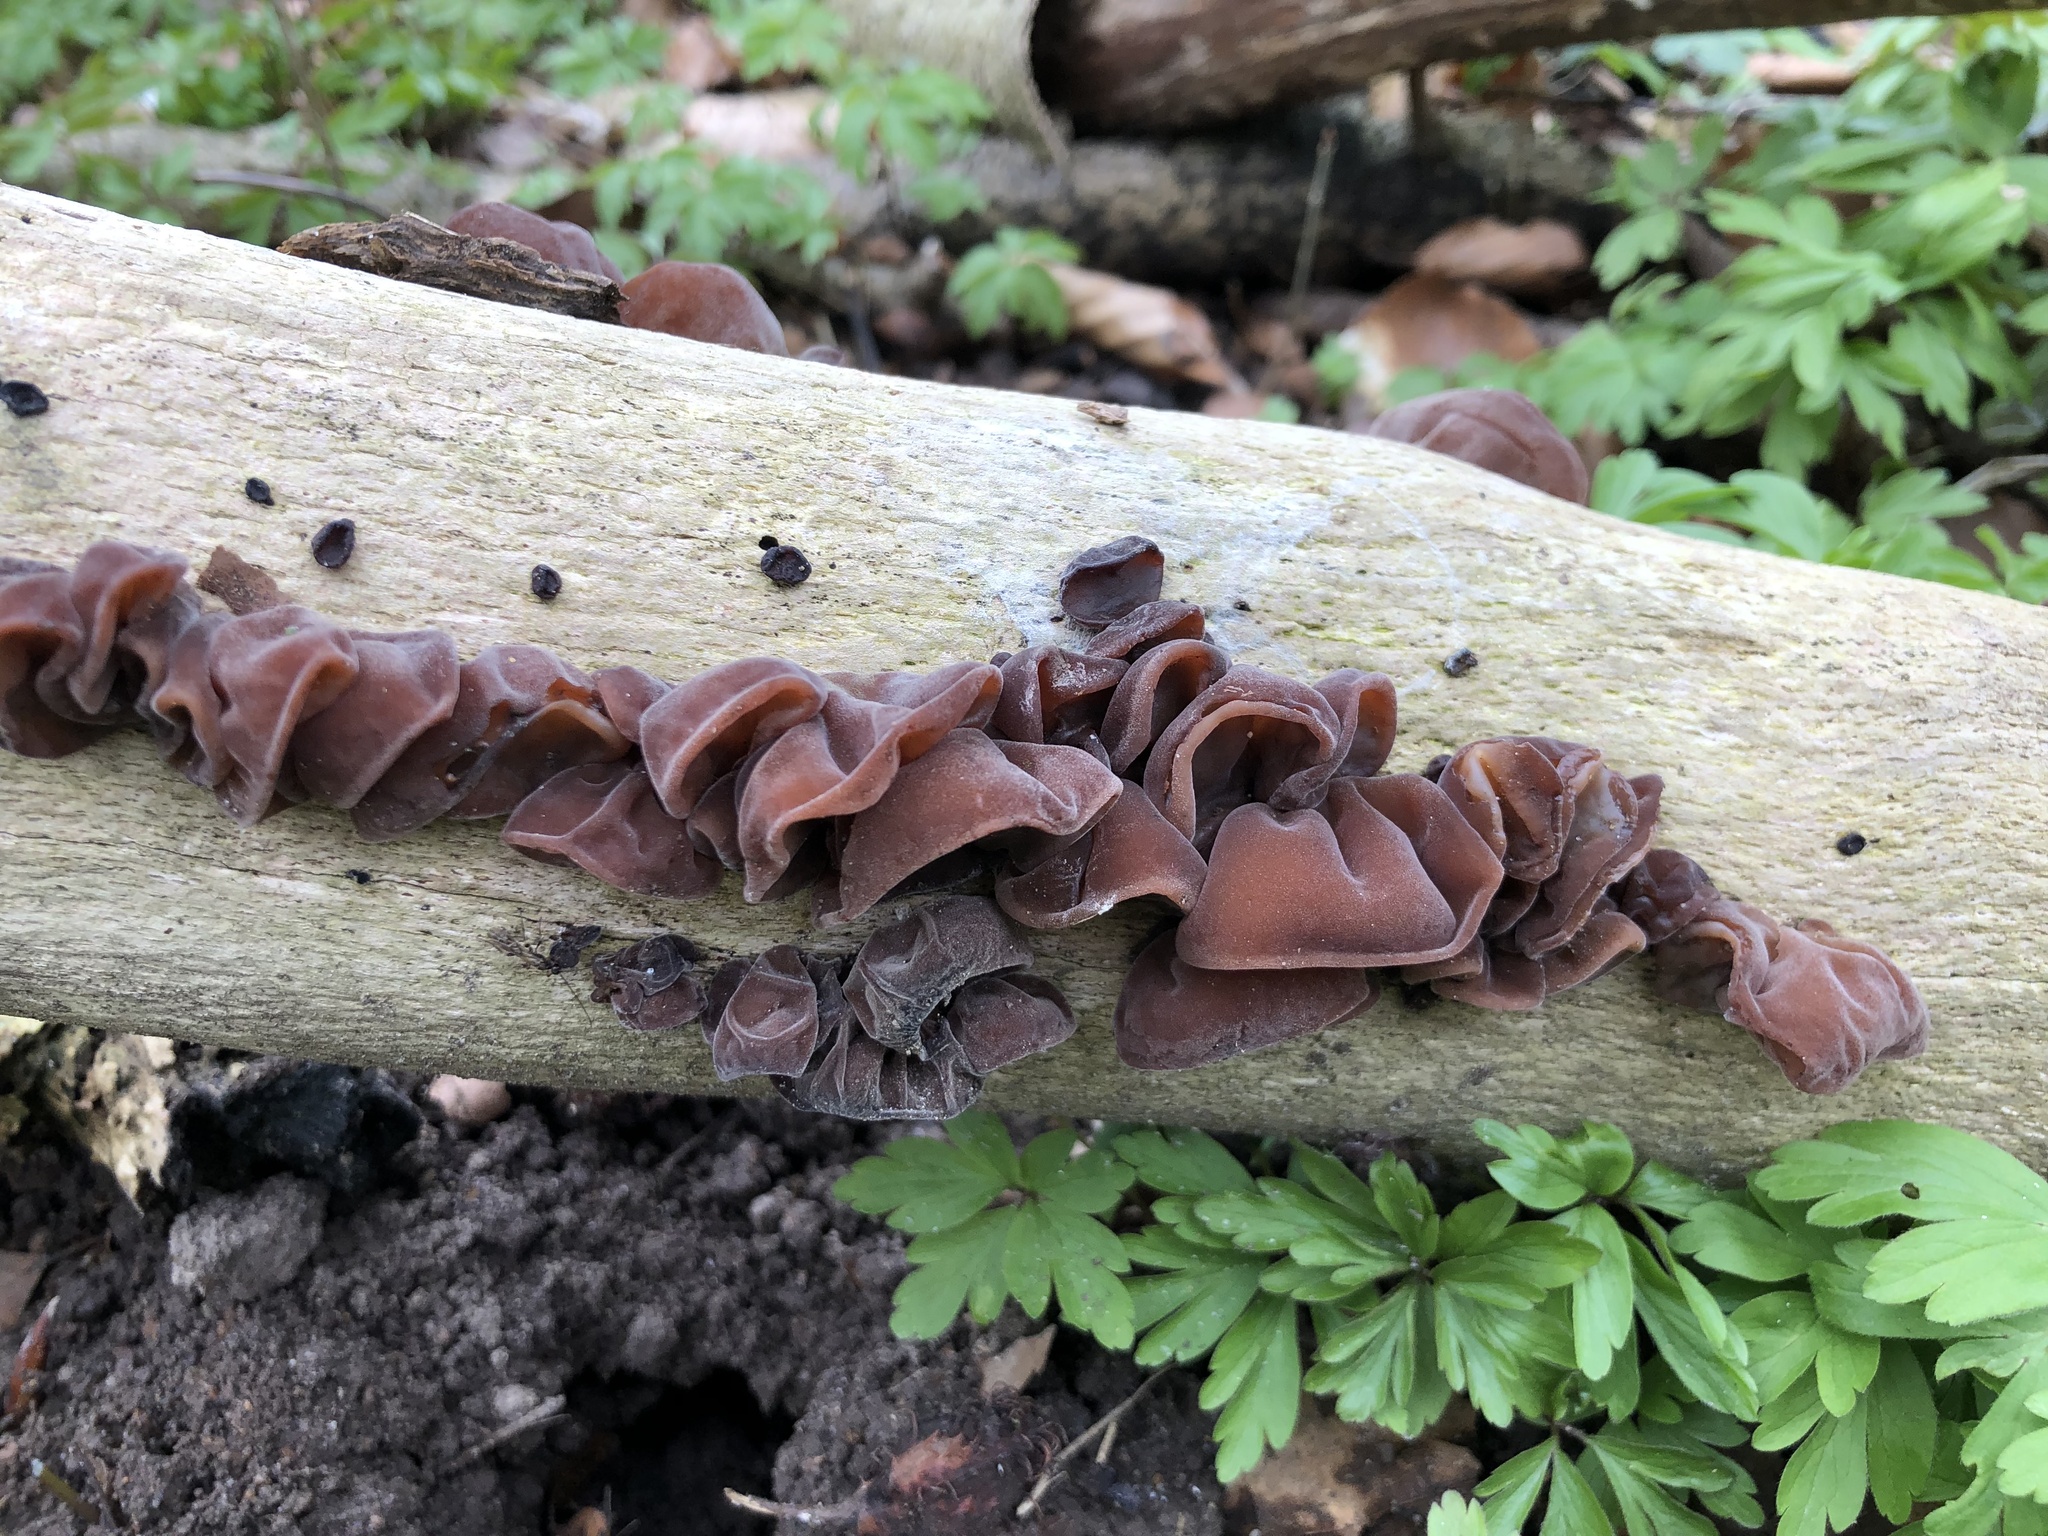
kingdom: Fungi
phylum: Basidiomycota
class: Agaricomycetes
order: Auriculariales
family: Auriculariaceae
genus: Auricularia
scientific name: Auricularia auricula-judae
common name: Jelly ear
